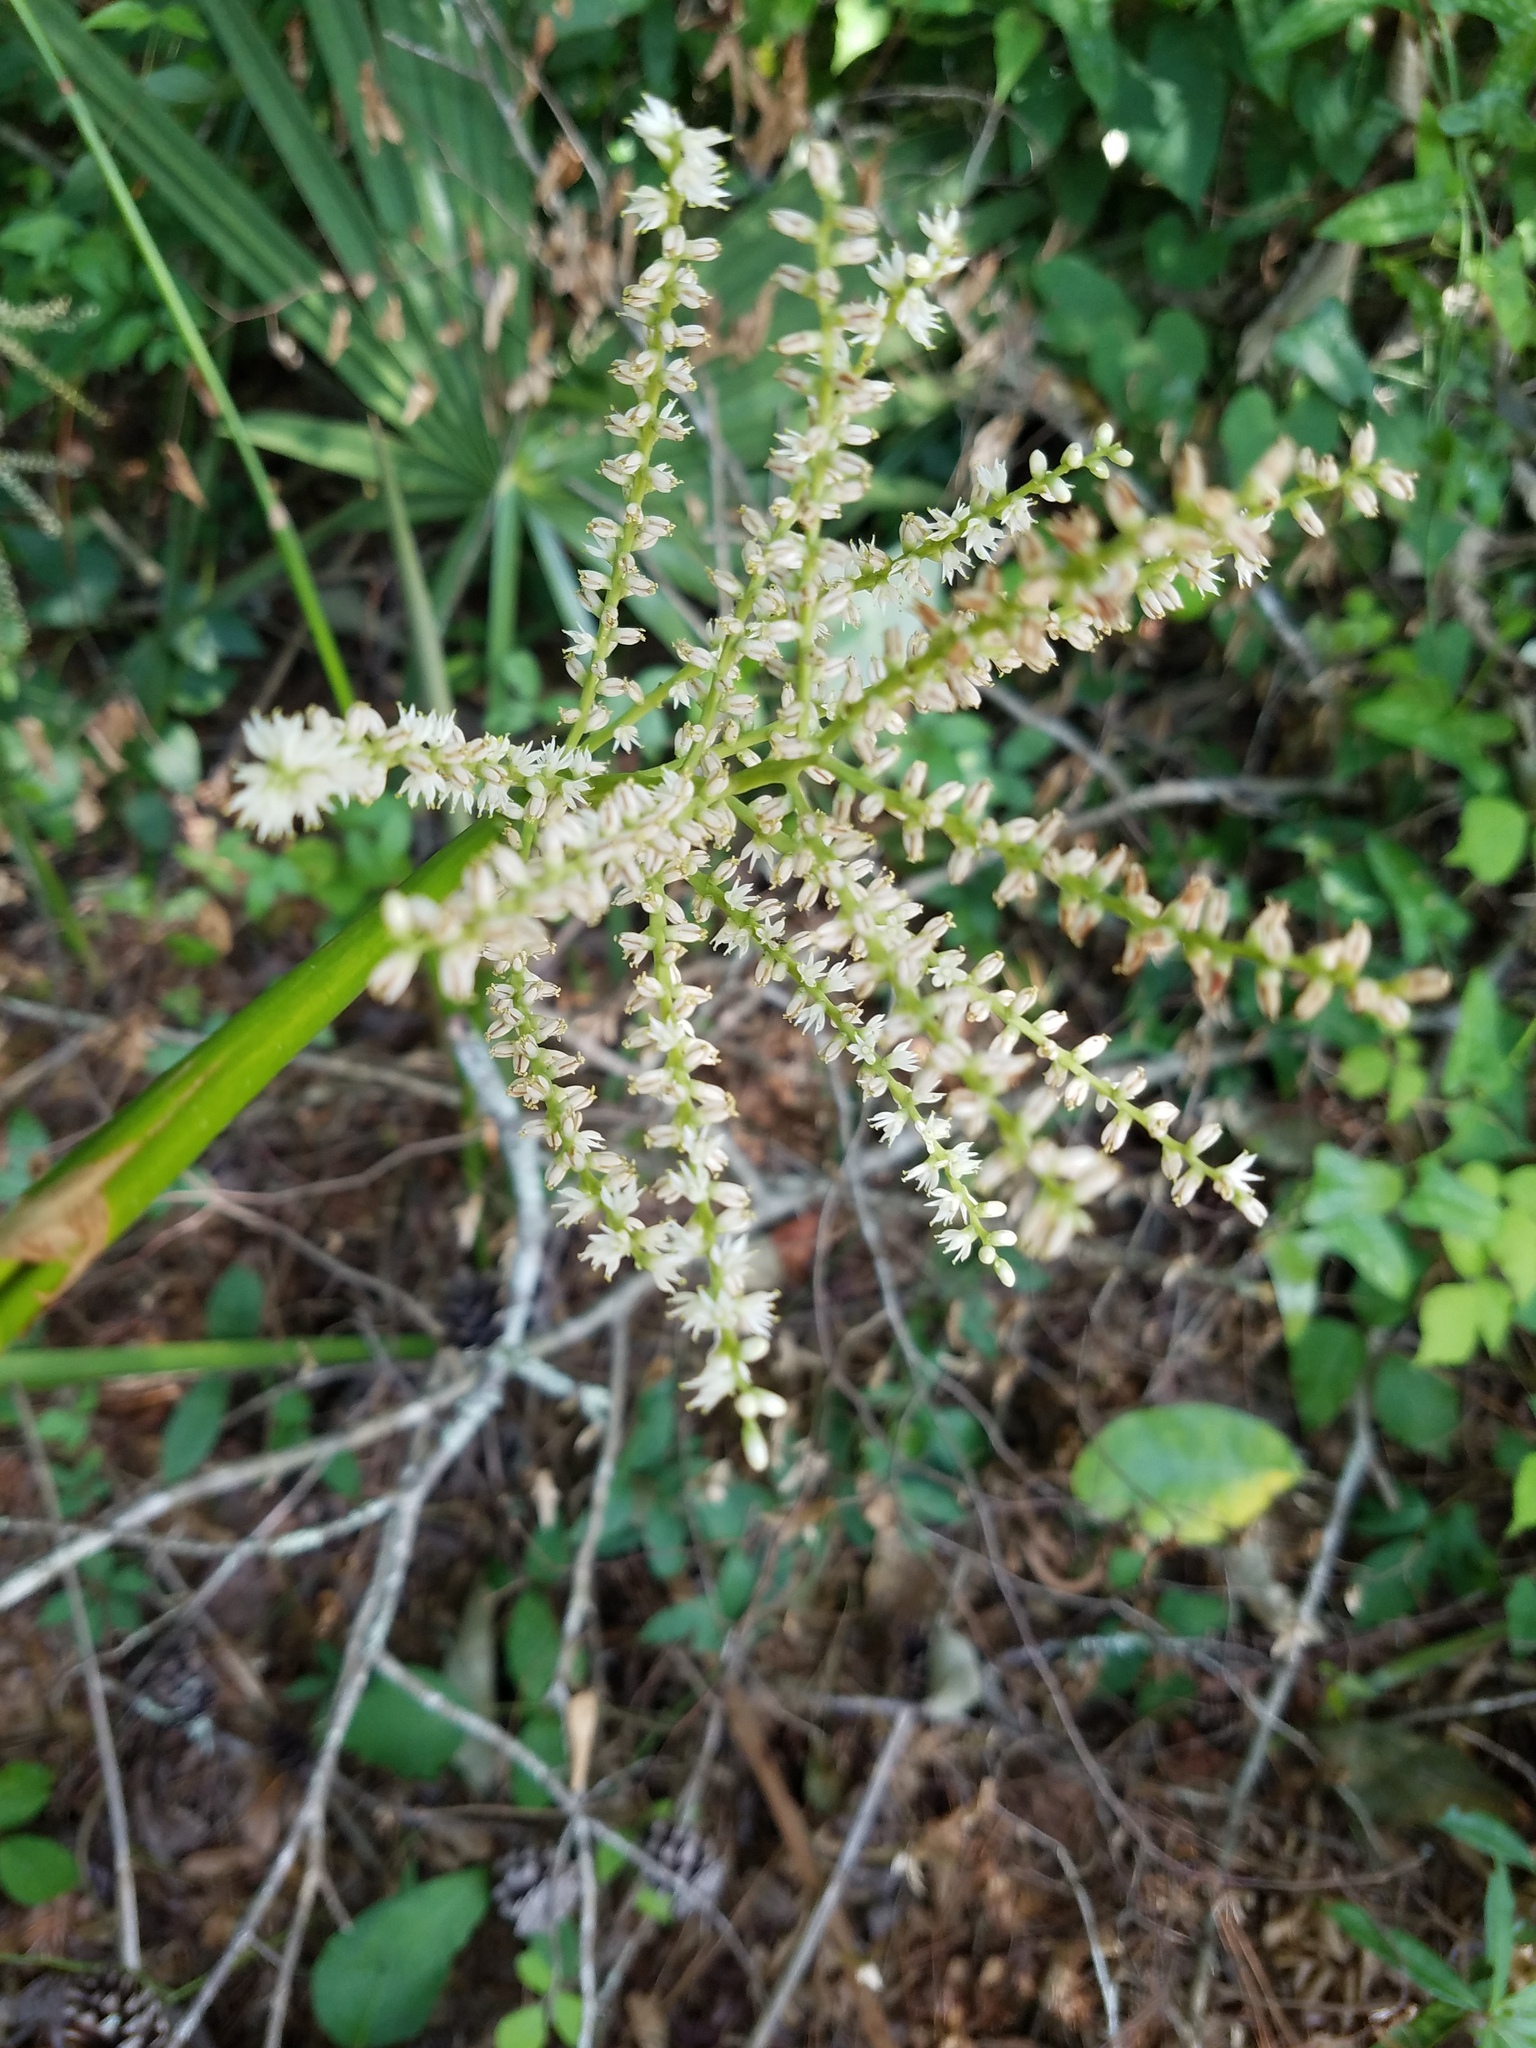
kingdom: Plantae
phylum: Tracheophyta
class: Liliopsida
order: Arecales
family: Arecaceae
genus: Sabal
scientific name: Sabal minor
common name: Dwarf palmetto
